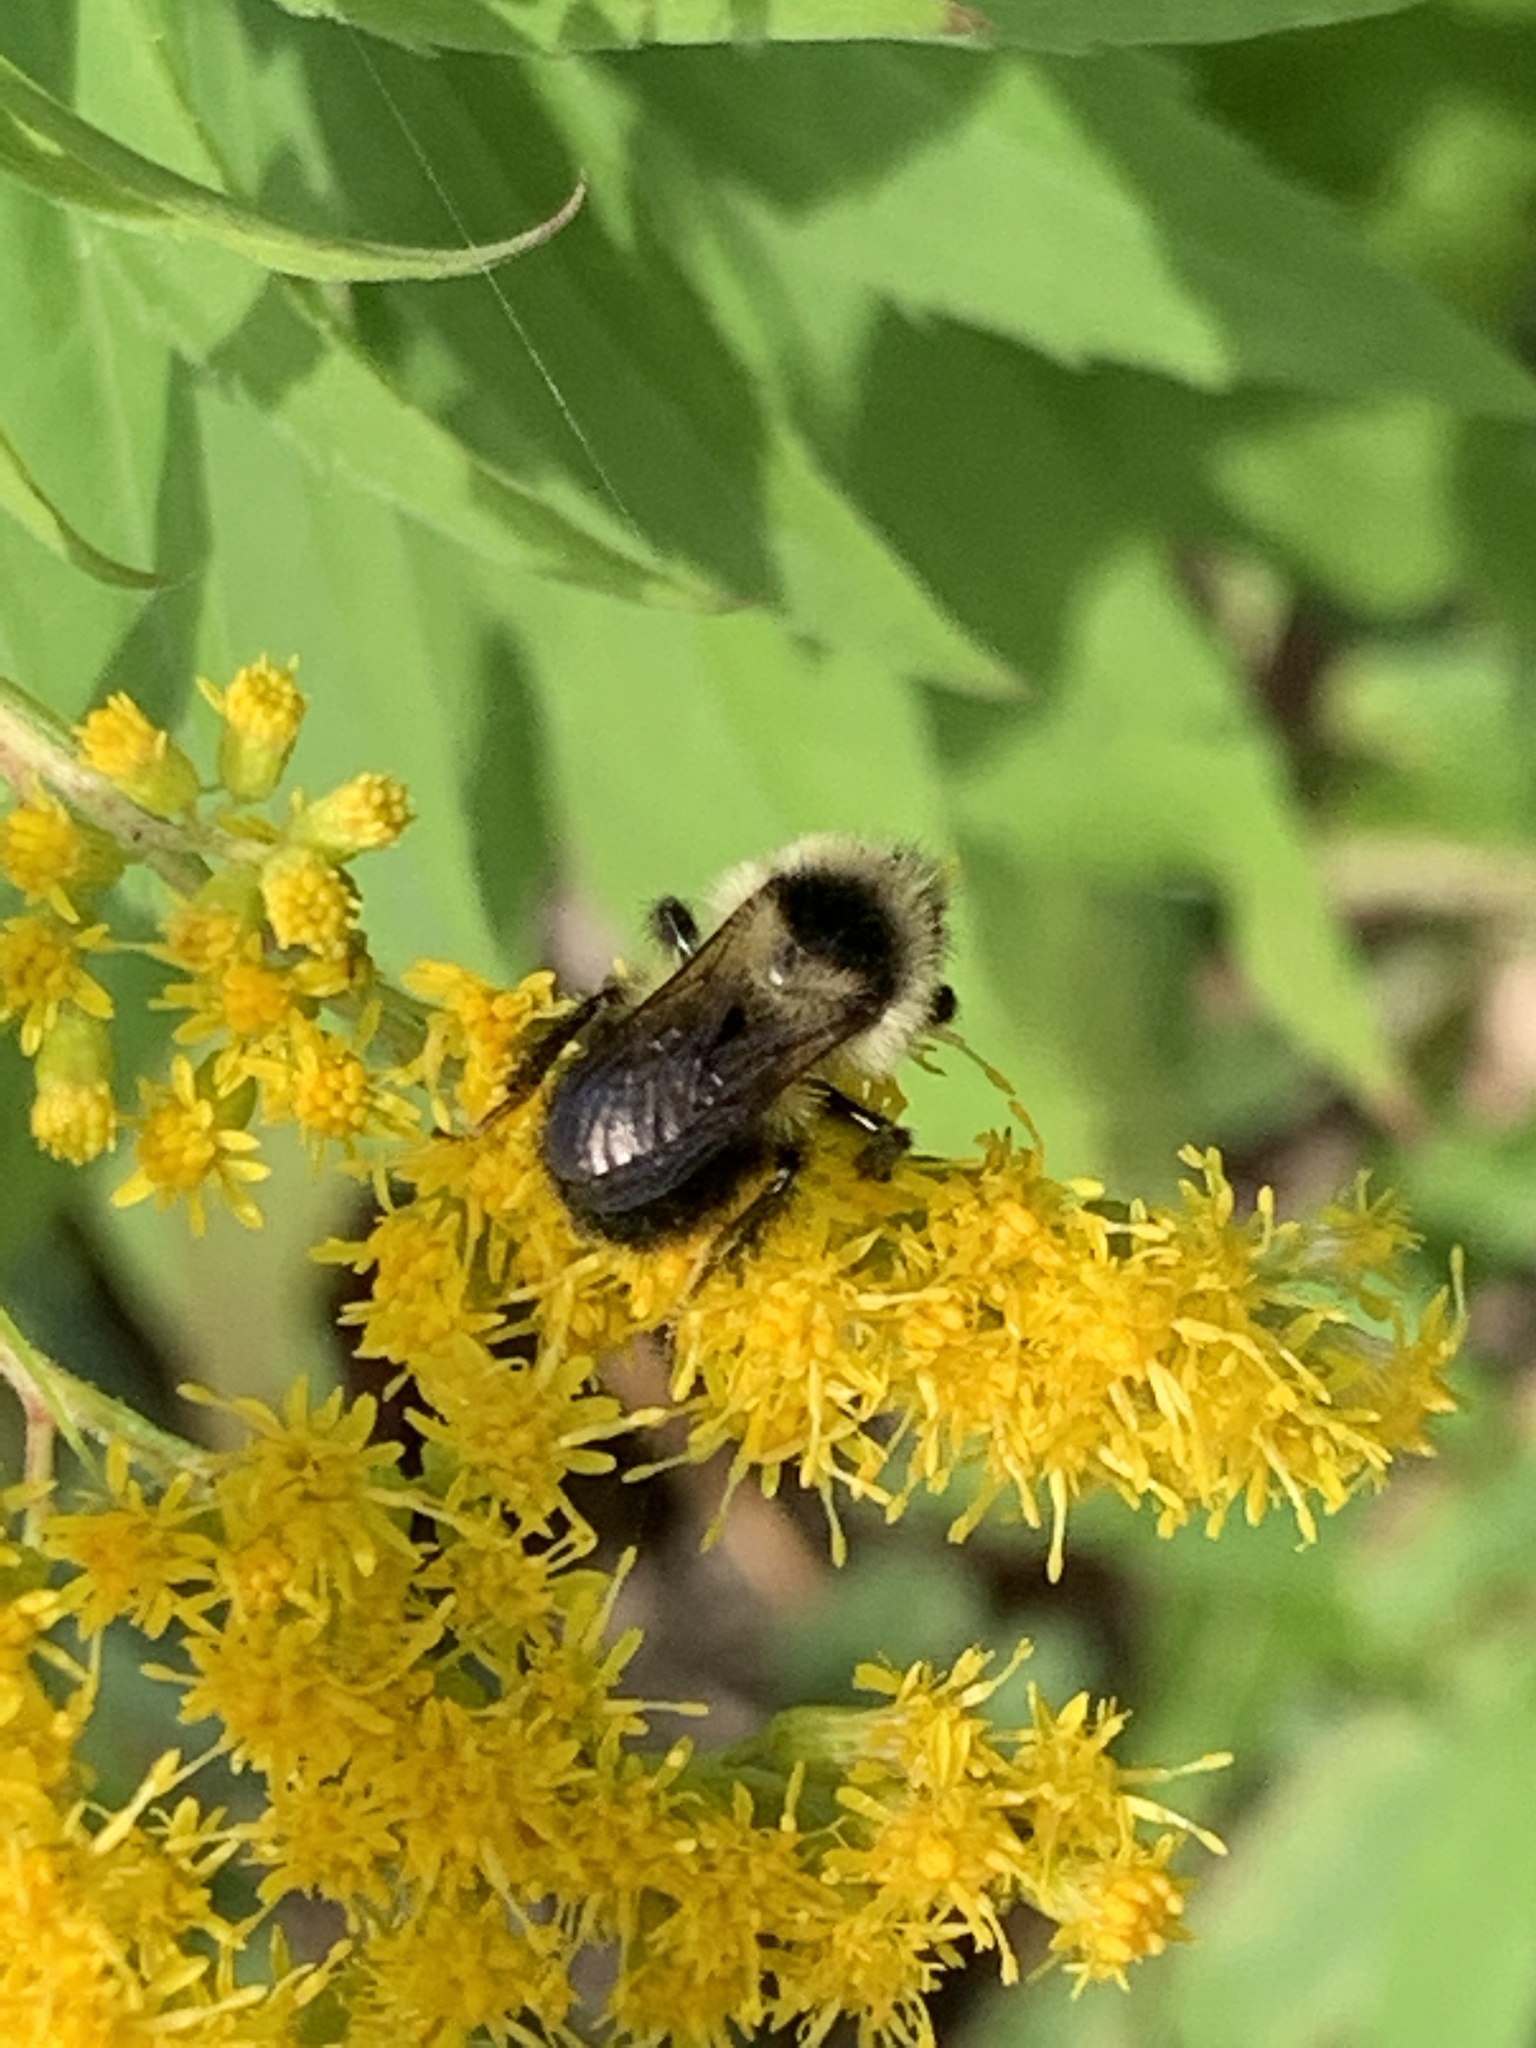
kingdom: Animalia
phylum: Arthropoda
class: Insecta
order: Hymenoptera
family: Apidae
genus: Bombus
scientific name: Bombus rufocinctus
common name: Red-belted bumble bee
